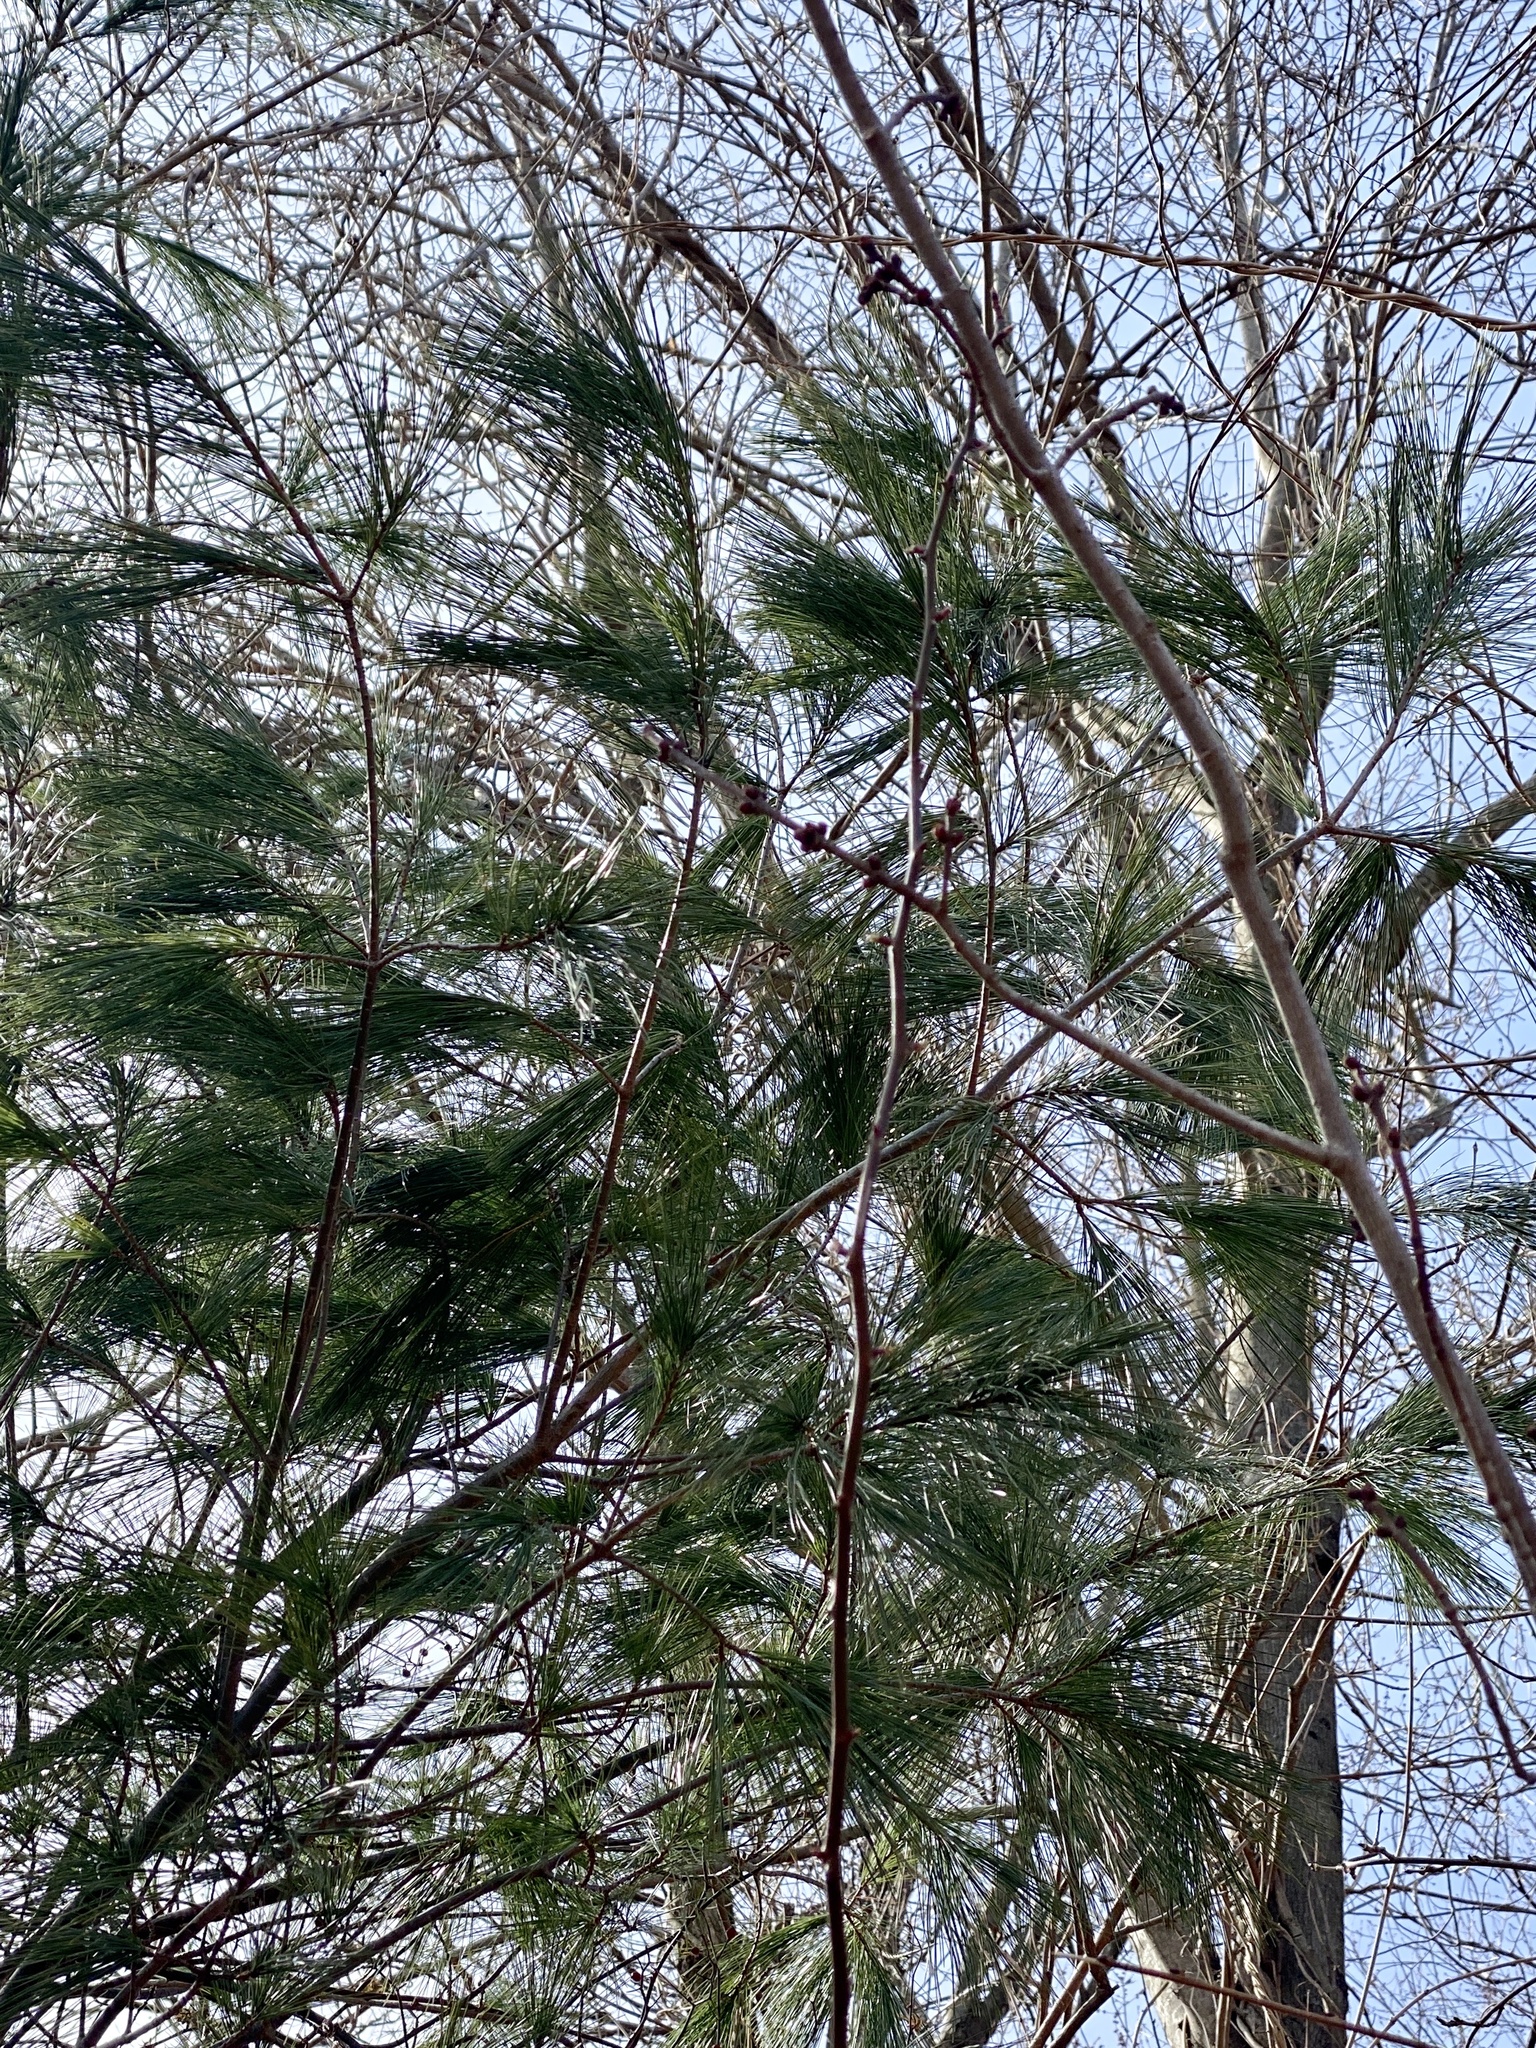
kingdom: Plantae
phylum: Tracheophyta
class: Pinopsida
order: Pinales
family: Pinaceae
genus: Pinus
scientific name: Pinus strobus
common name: Weymouth pine
